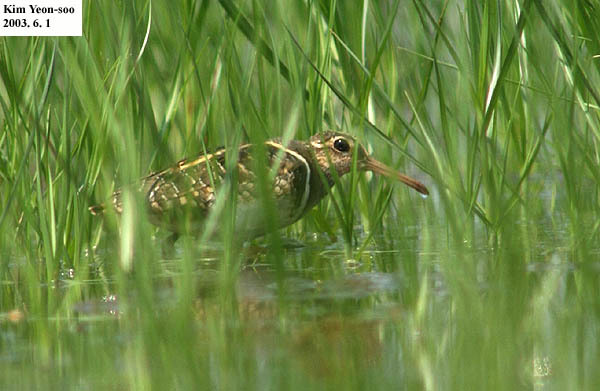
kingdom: Animalia
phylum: Chordata
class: Aves
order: Charadriiformes
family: Rostratulidae
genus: Rostratula
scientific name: Rostratula benghalensis
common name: Greater painted-snipe
